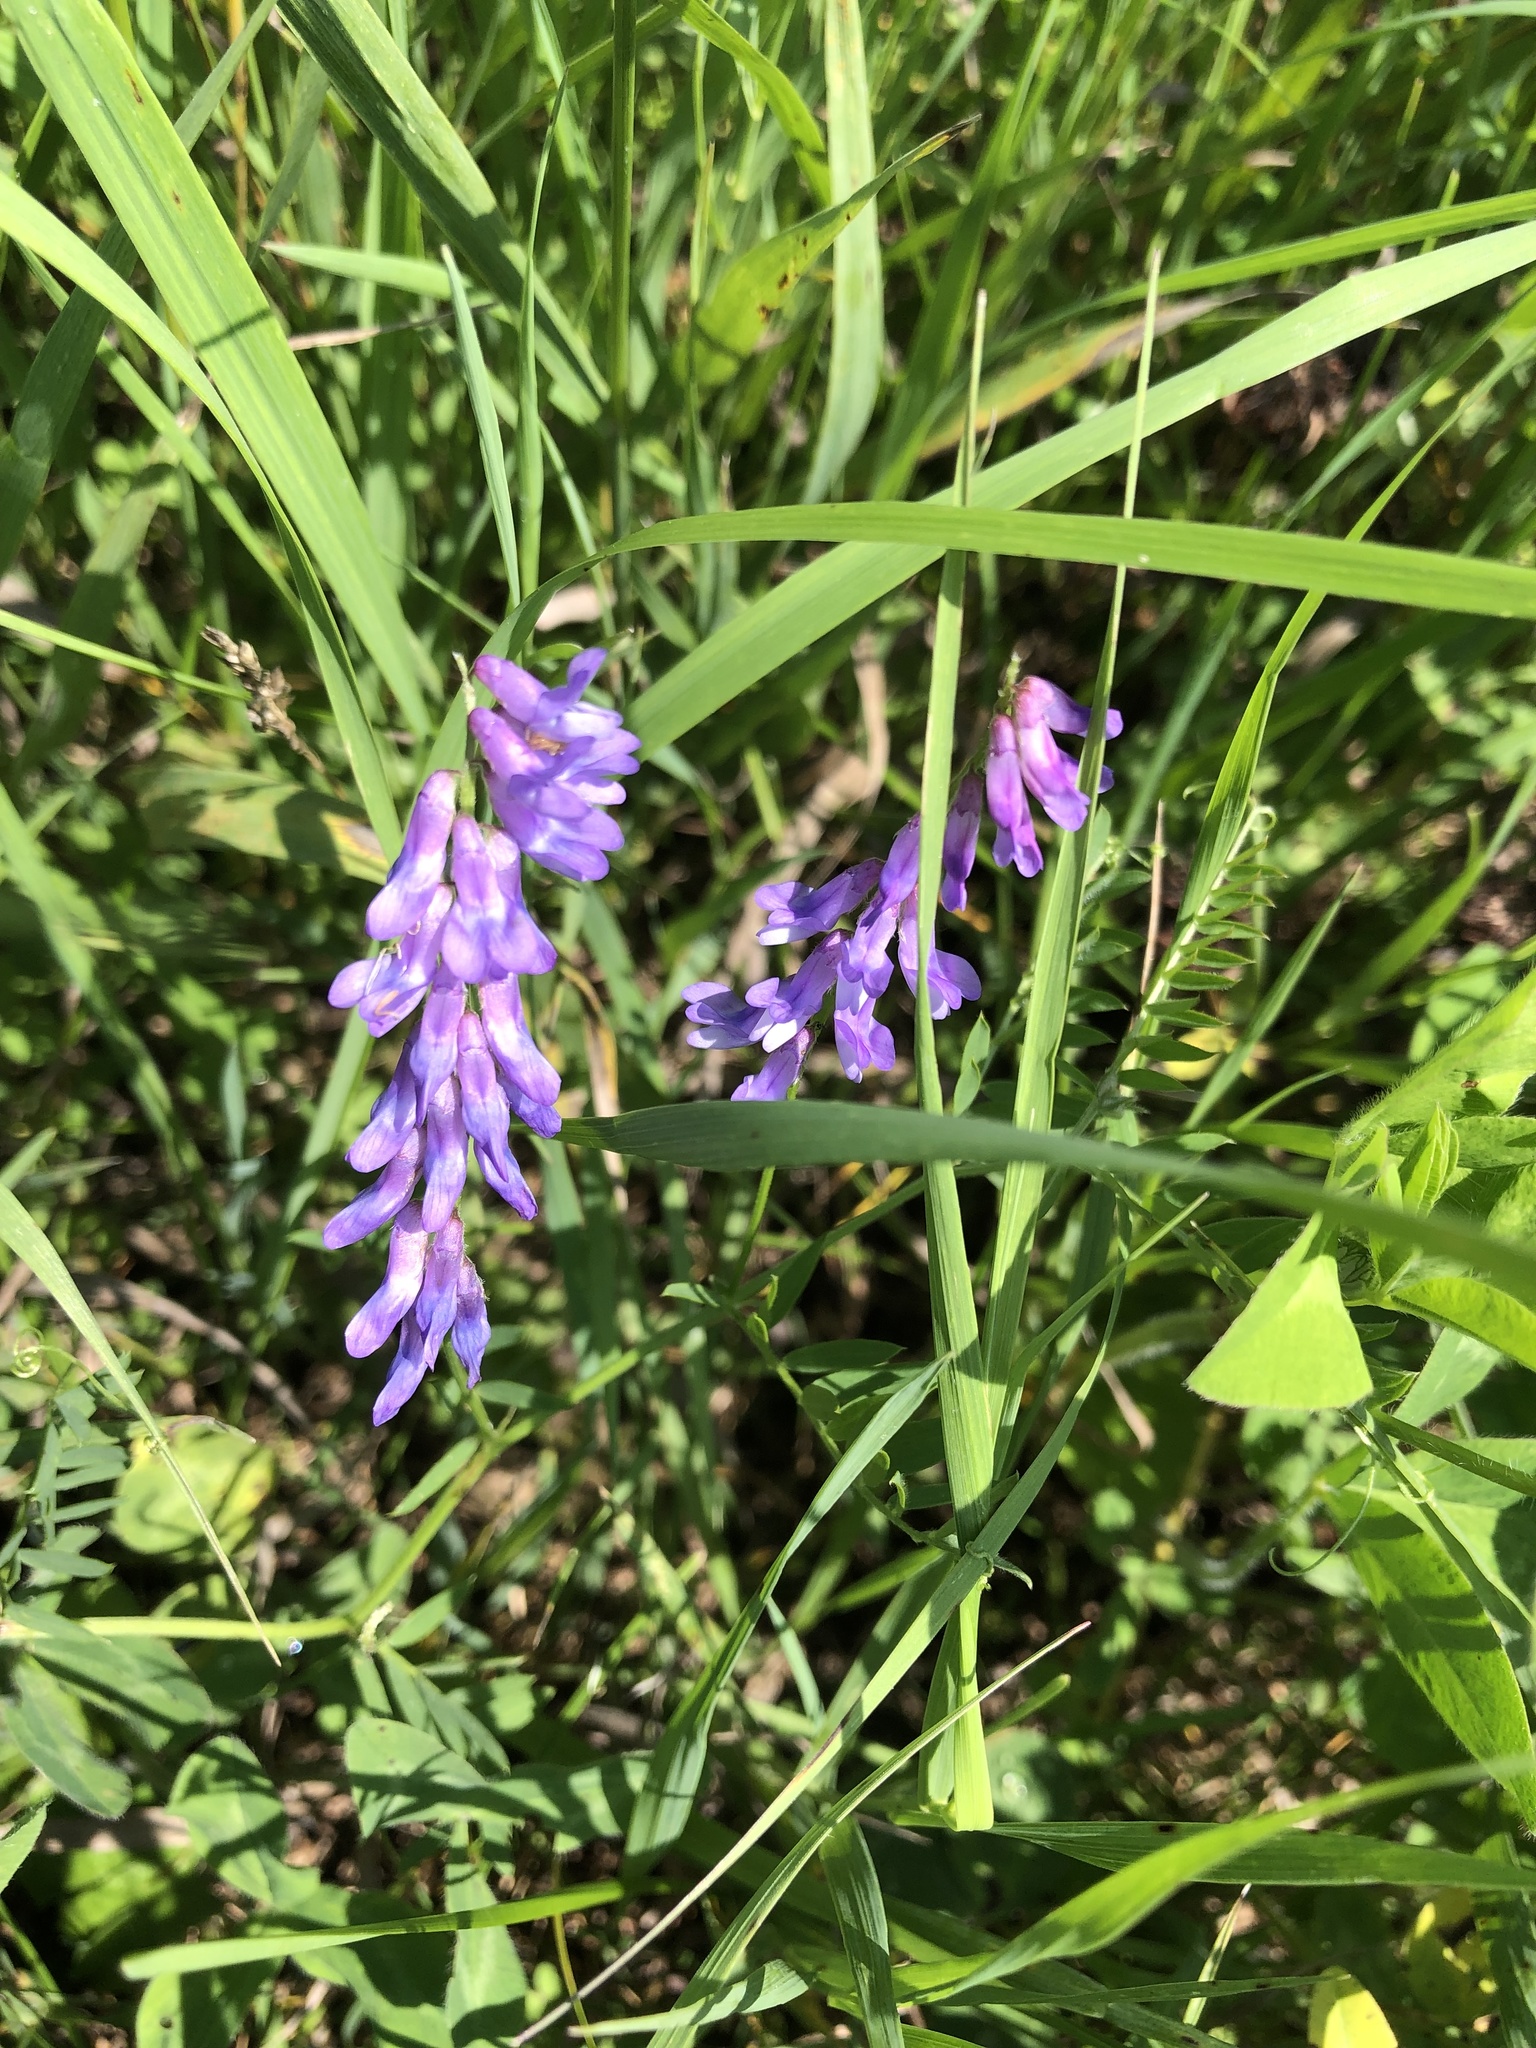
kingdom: Plantae
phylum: Tracheophyta
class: Magnoliopsida
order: Fabales
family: Fabaceae
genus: Vicia
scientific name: Vicia cracca
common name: Bird vetch
